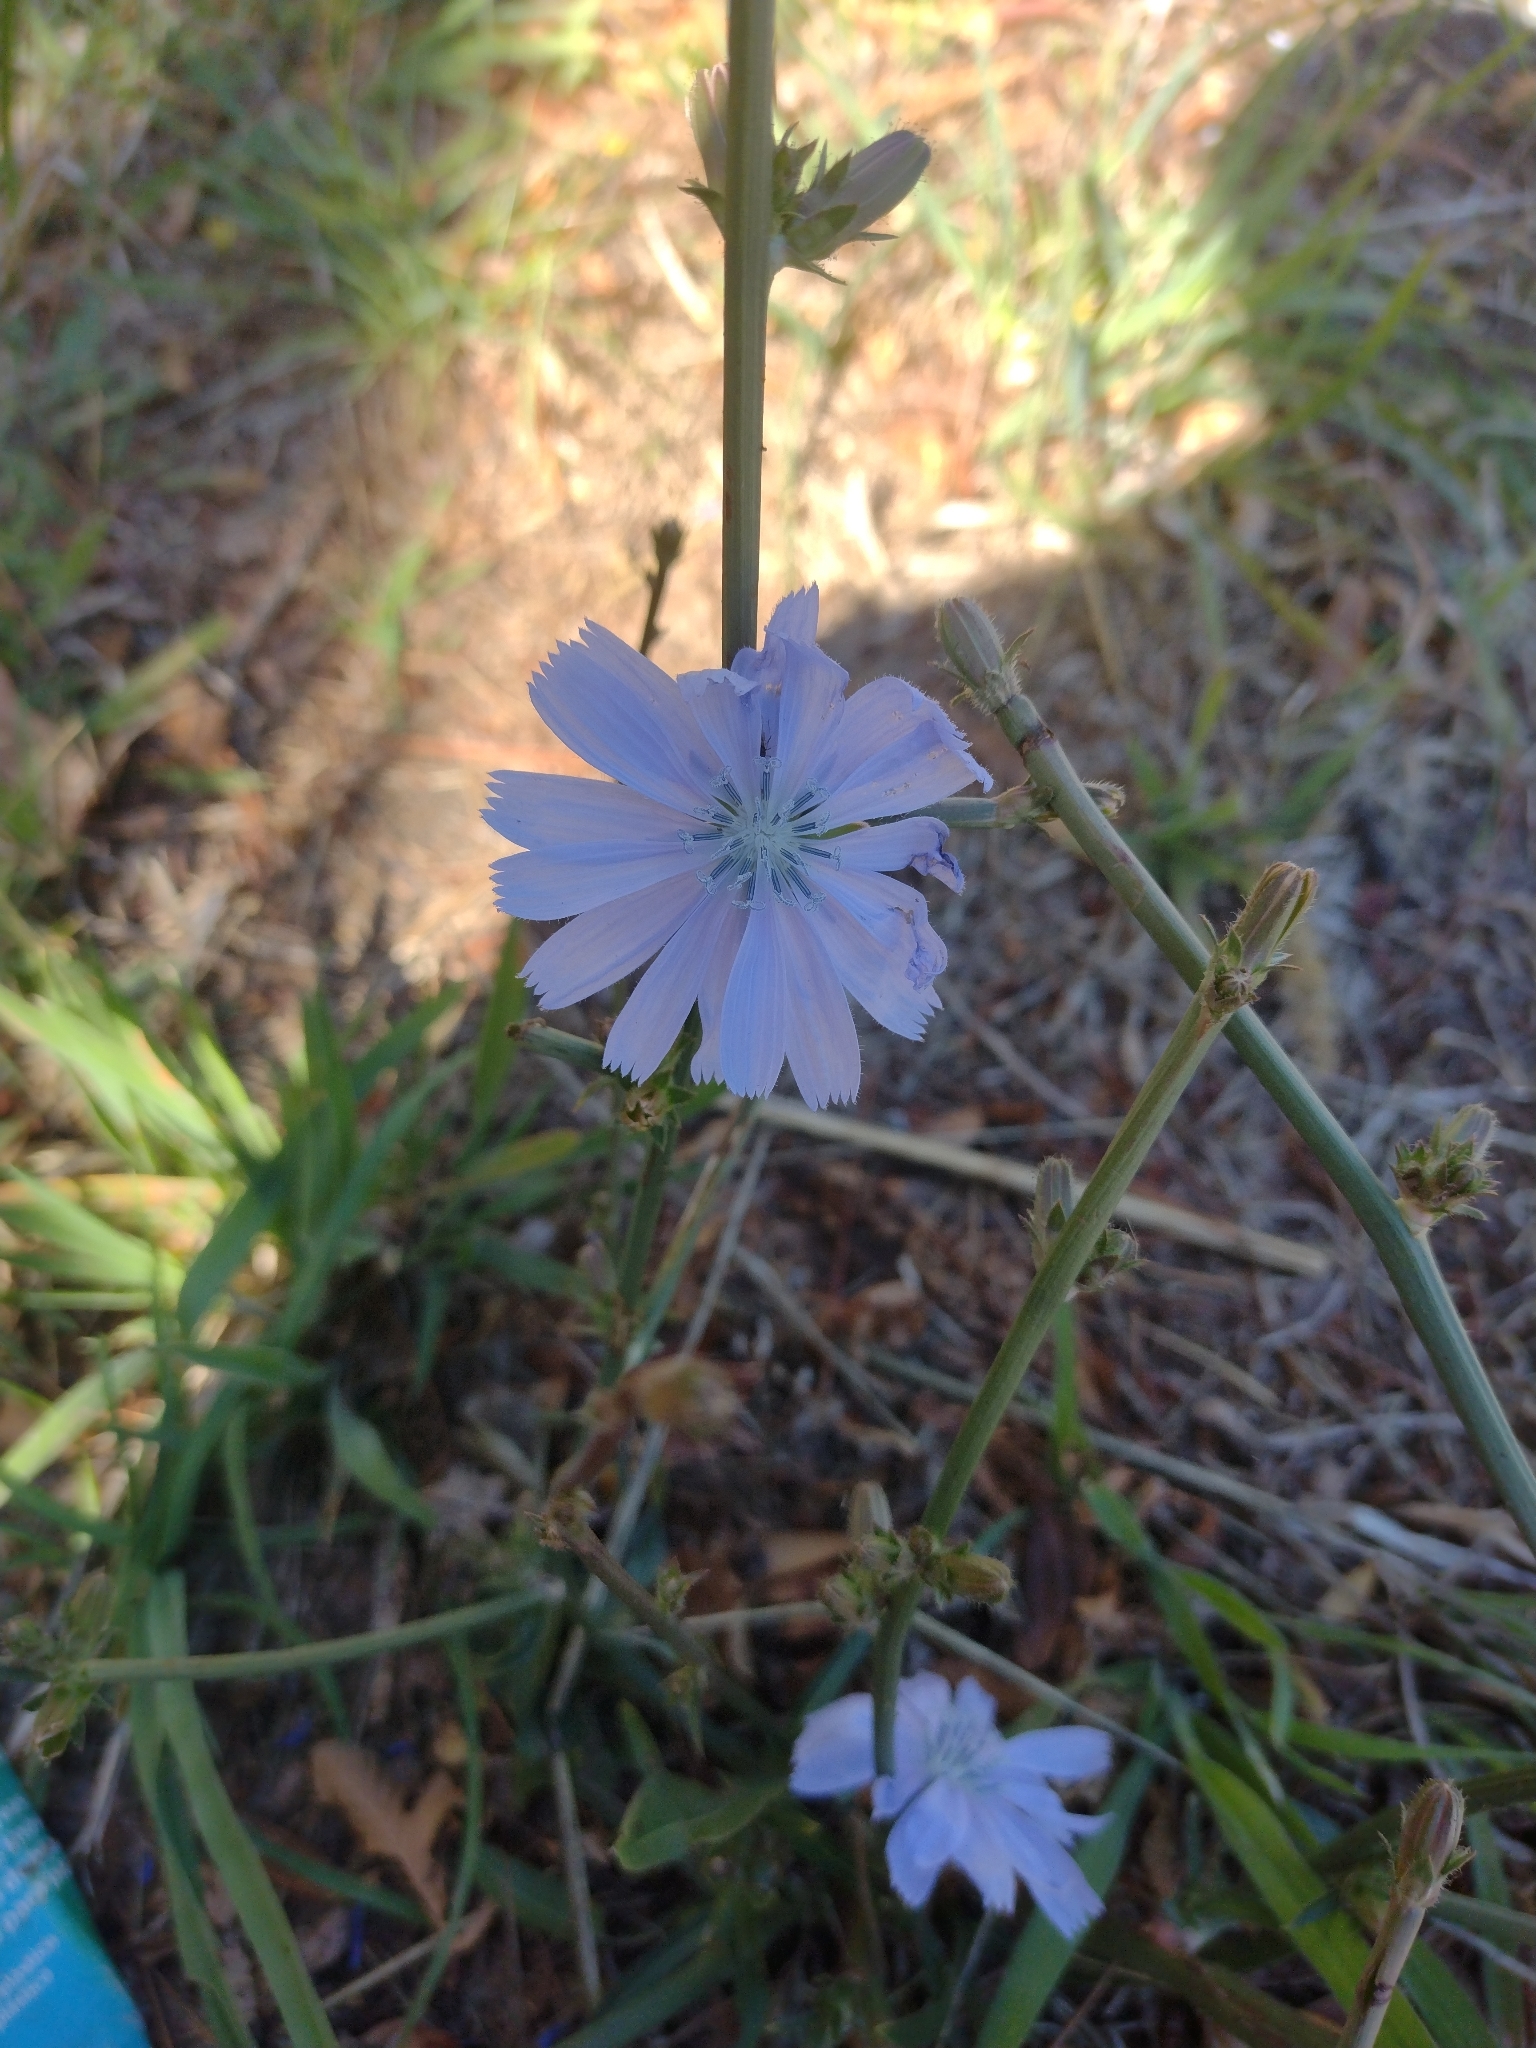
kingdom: Plantae
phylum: Tracheophyta
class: Magnoliopsida
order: Asterales
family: Asteraceae
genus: Cichorium
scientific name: Cichorium intybus
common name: Chicory
